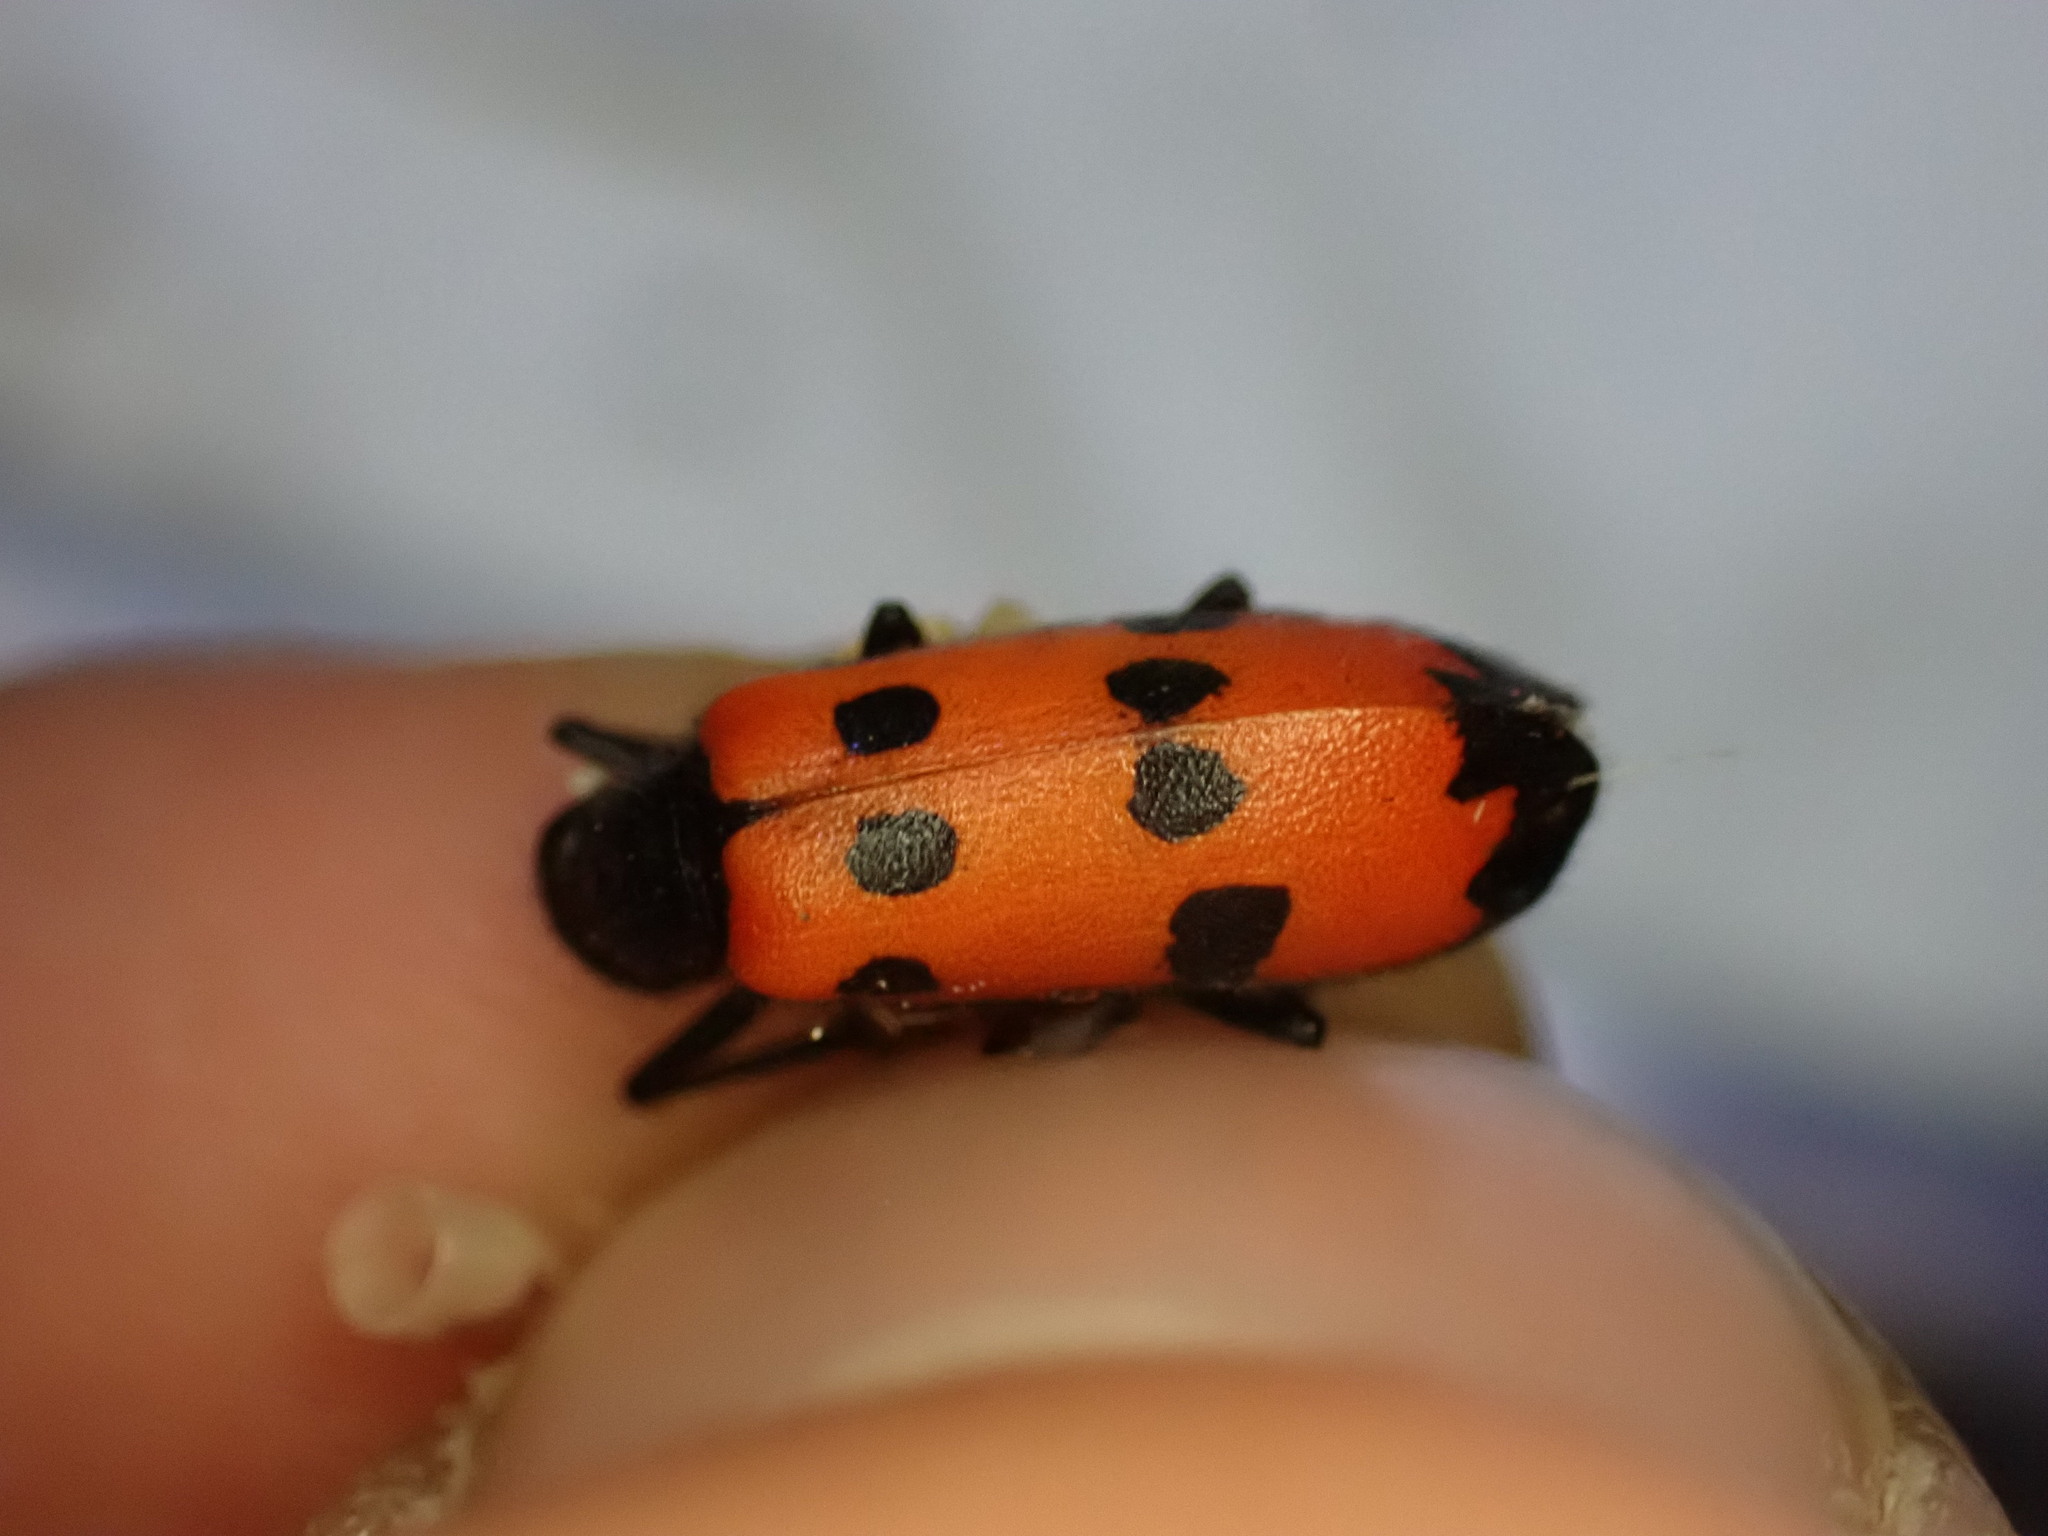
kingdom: Animalia
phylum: Arthropoda
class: Insecta
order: Coleoptera
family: Meloidae
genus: Mylabris
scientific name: Mylabris quadripunctata
